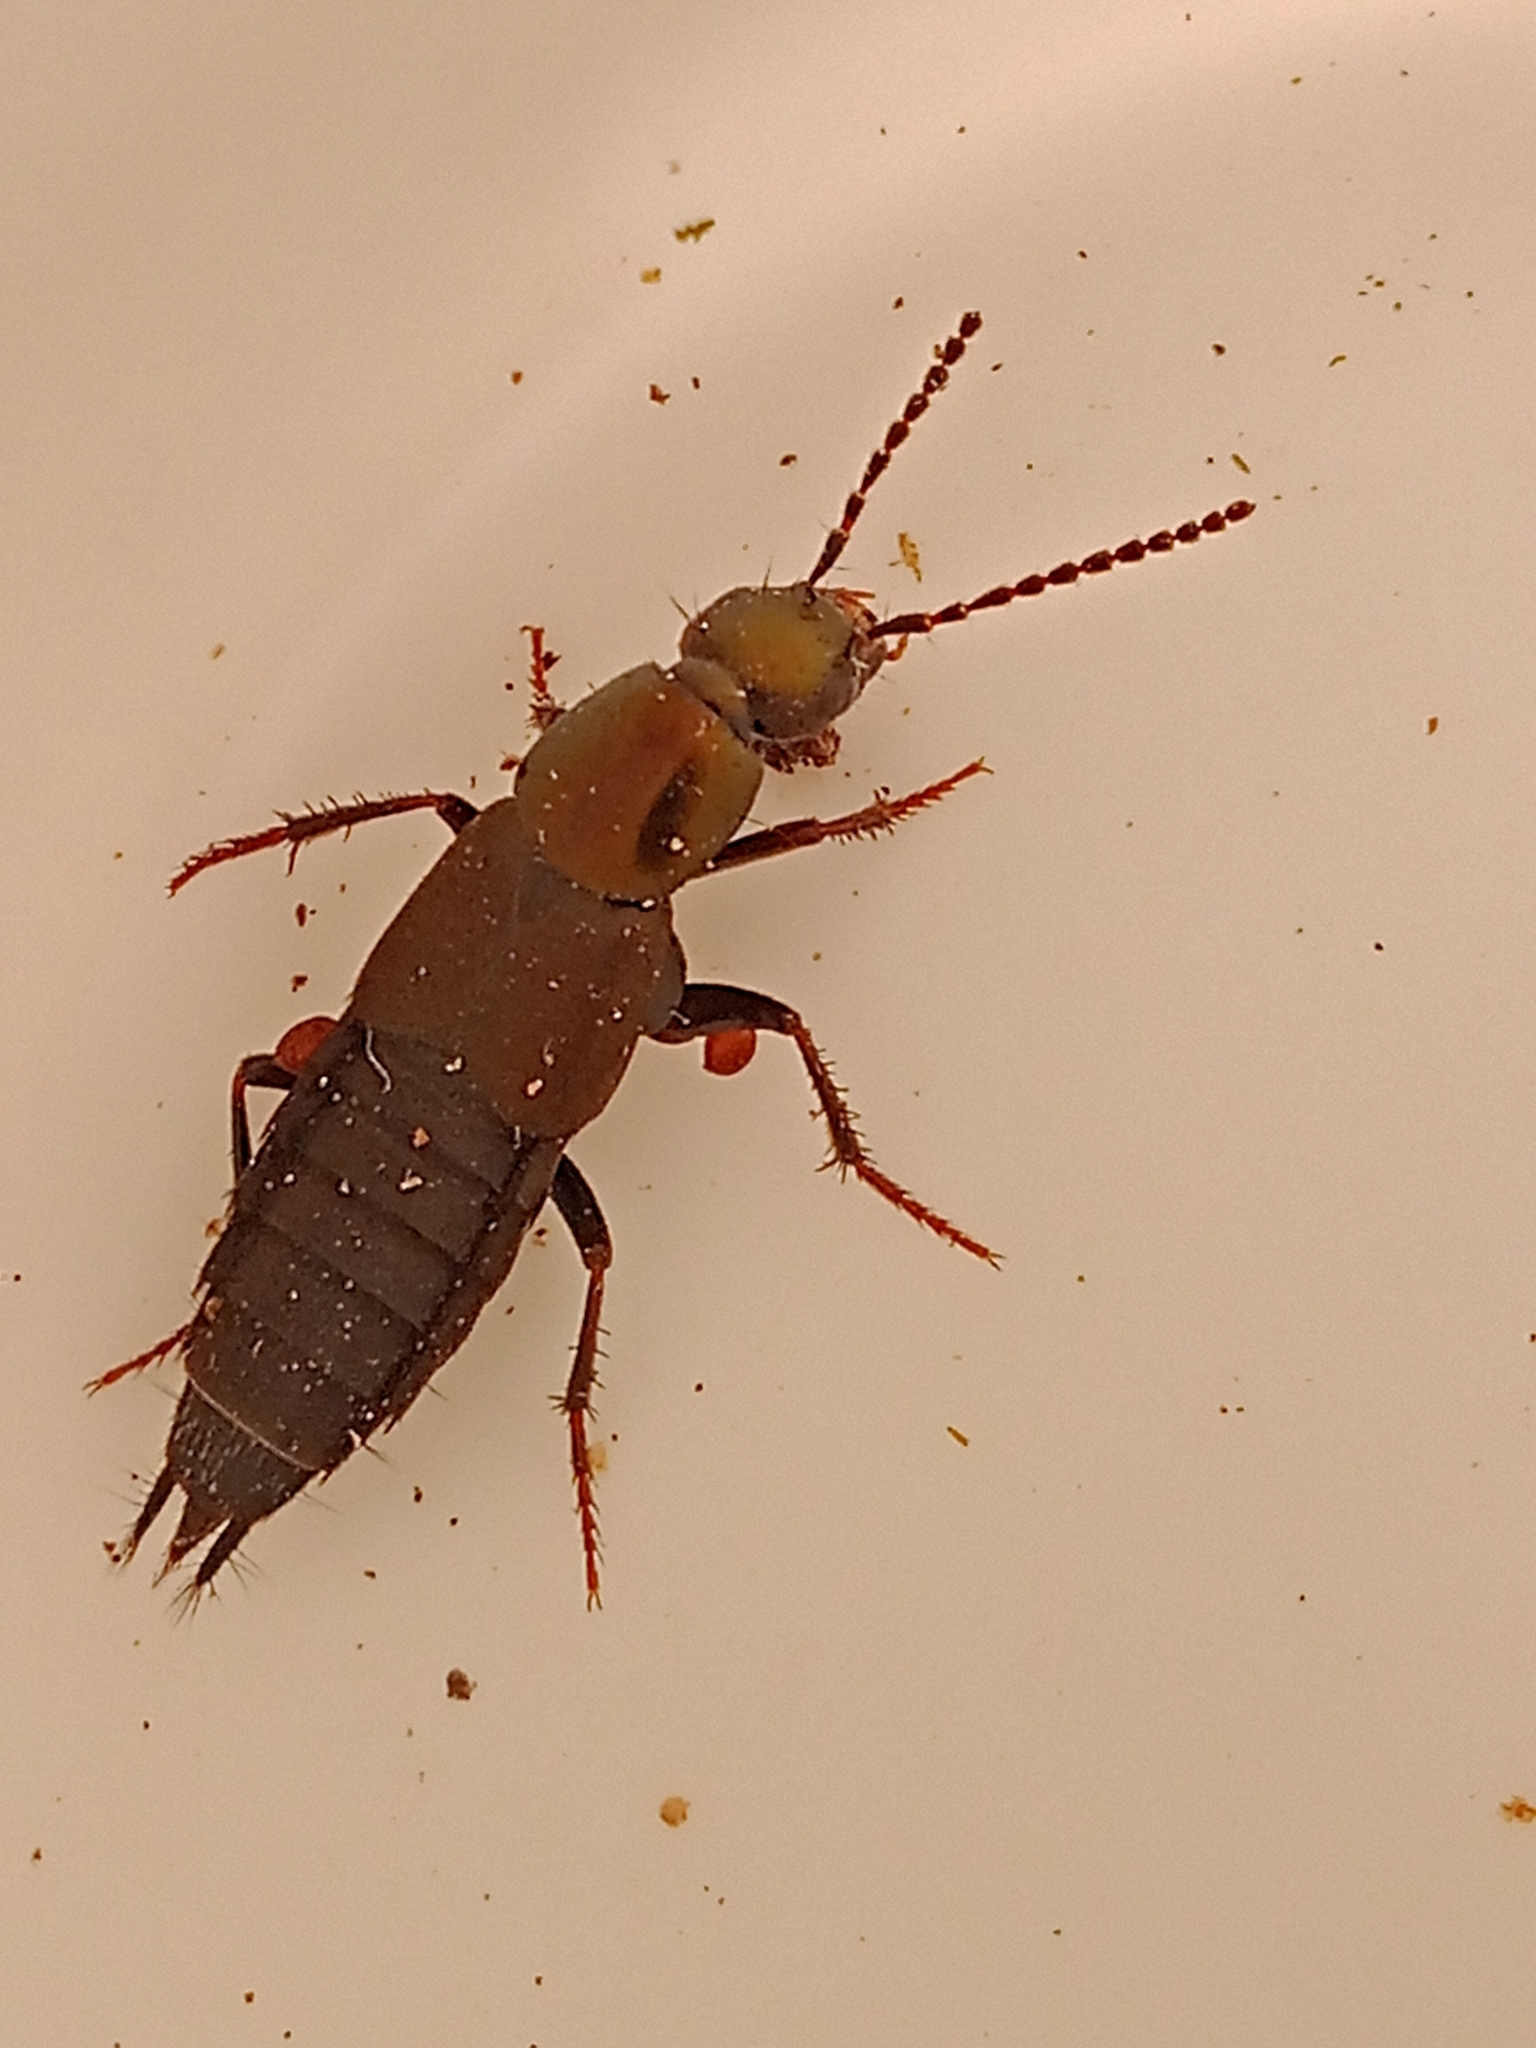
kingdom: Animalia
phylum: Arthropoda
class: Insecta
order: Coleoptera
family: Staphylinidae
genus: Philonthus
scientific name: Philonthus decorus
